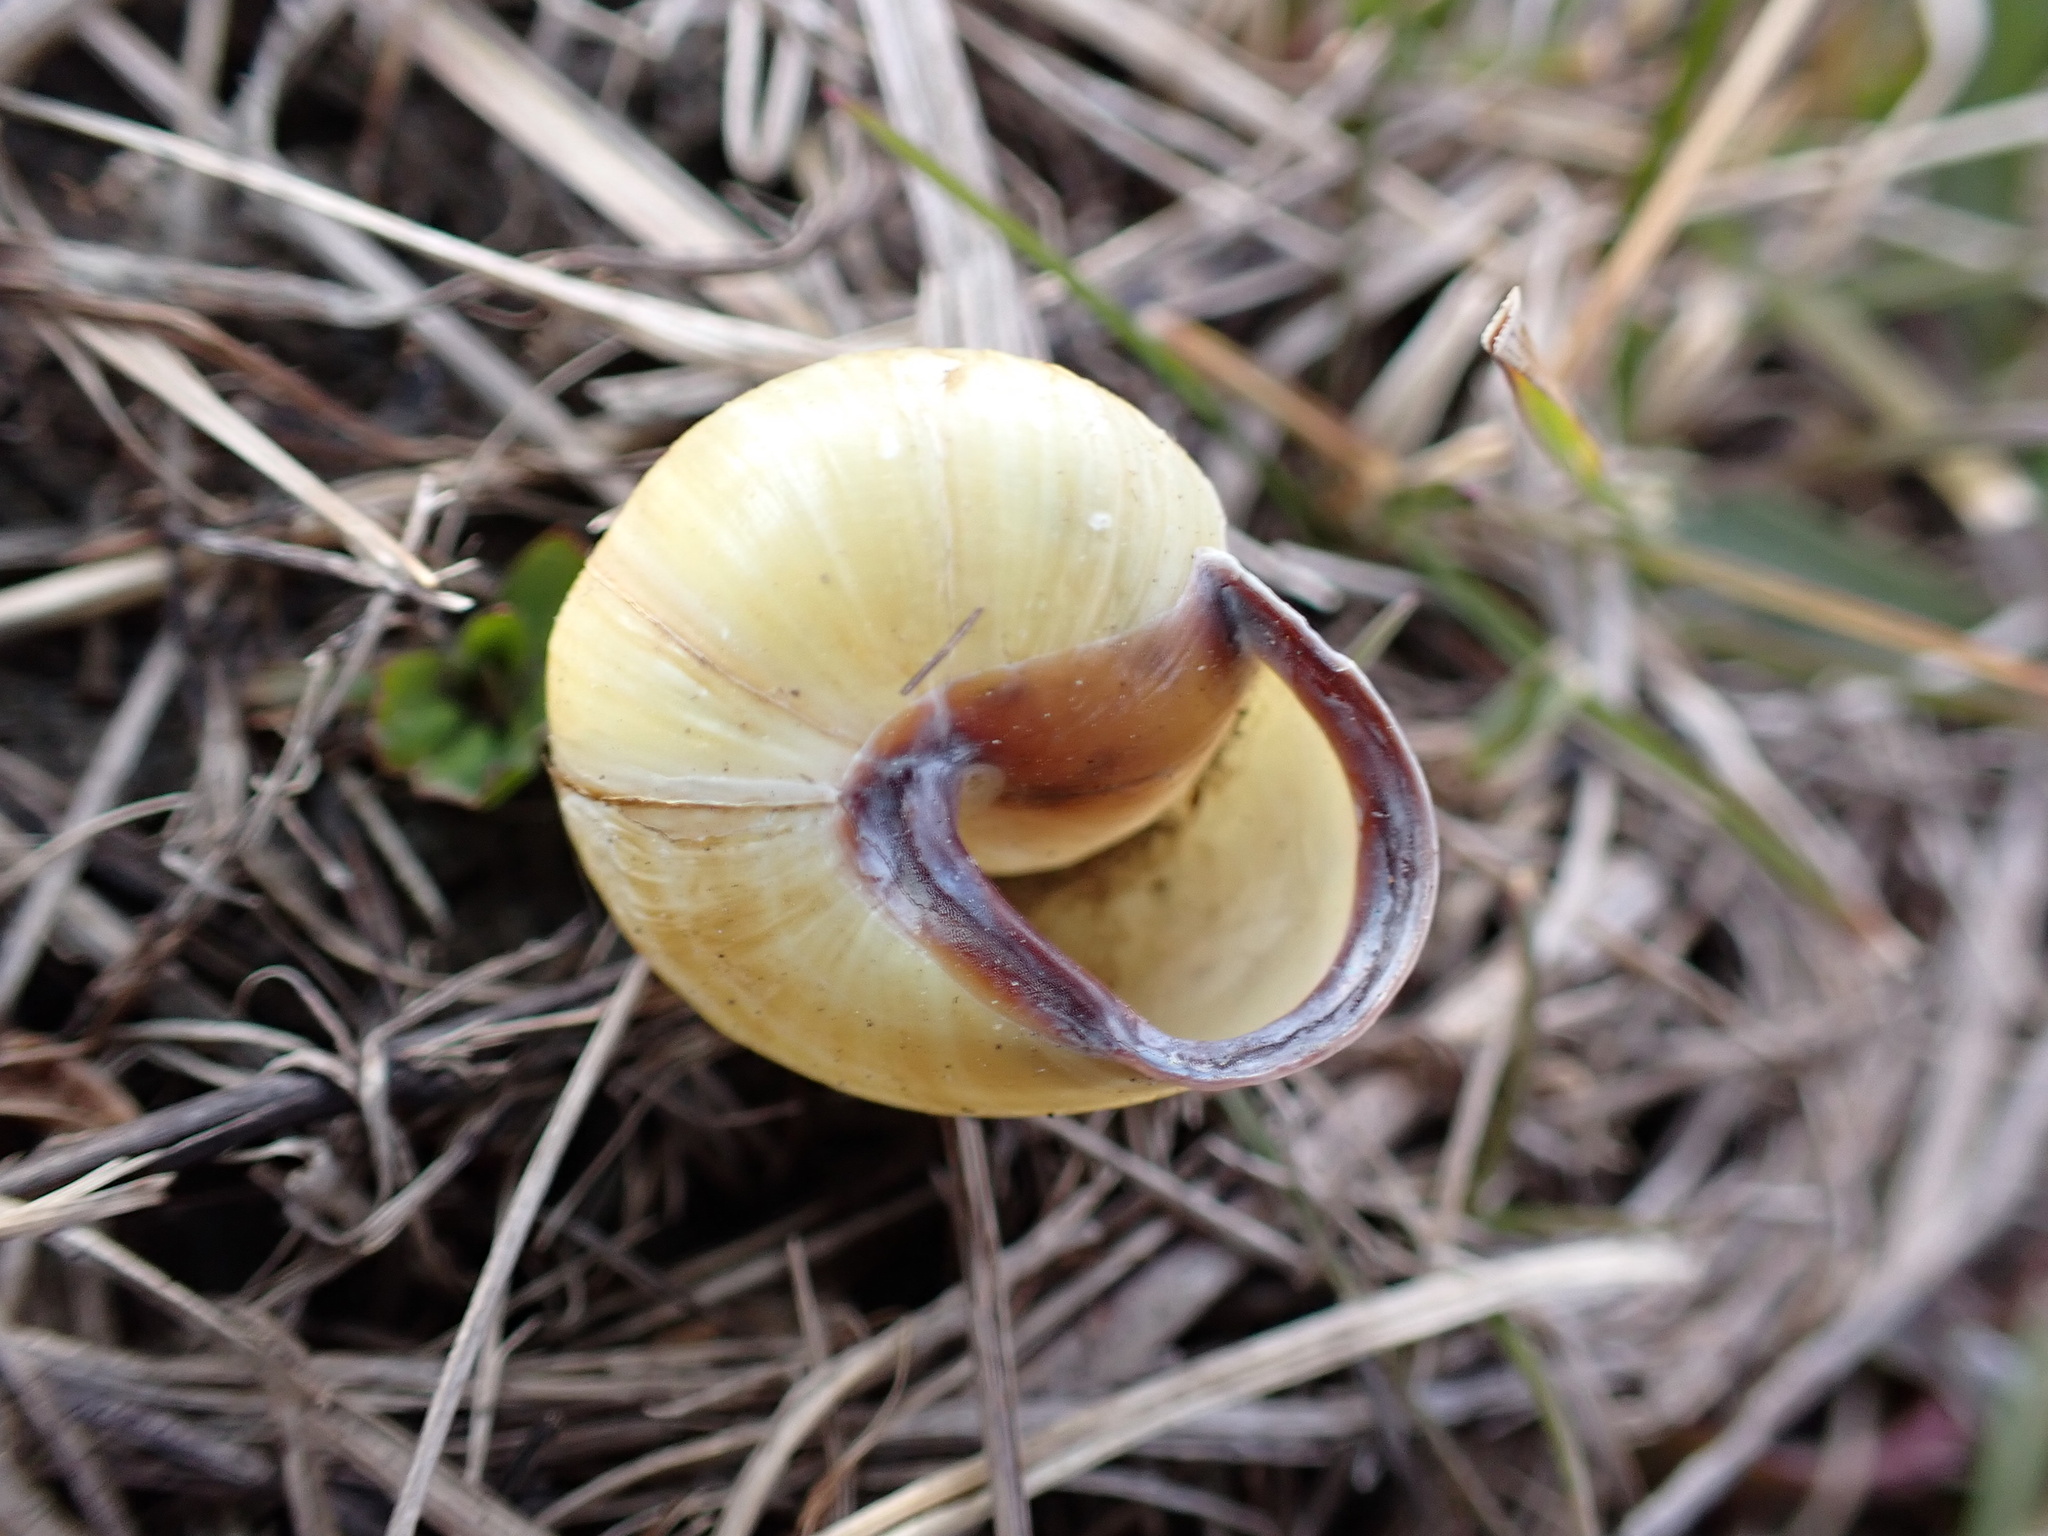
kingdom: Animalia
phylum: Mollusca
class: Gastropoda
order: Stylommatophora
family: Helicidae
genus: Cepaea
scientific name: Cepaea nemoralis
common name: Grovesnail
